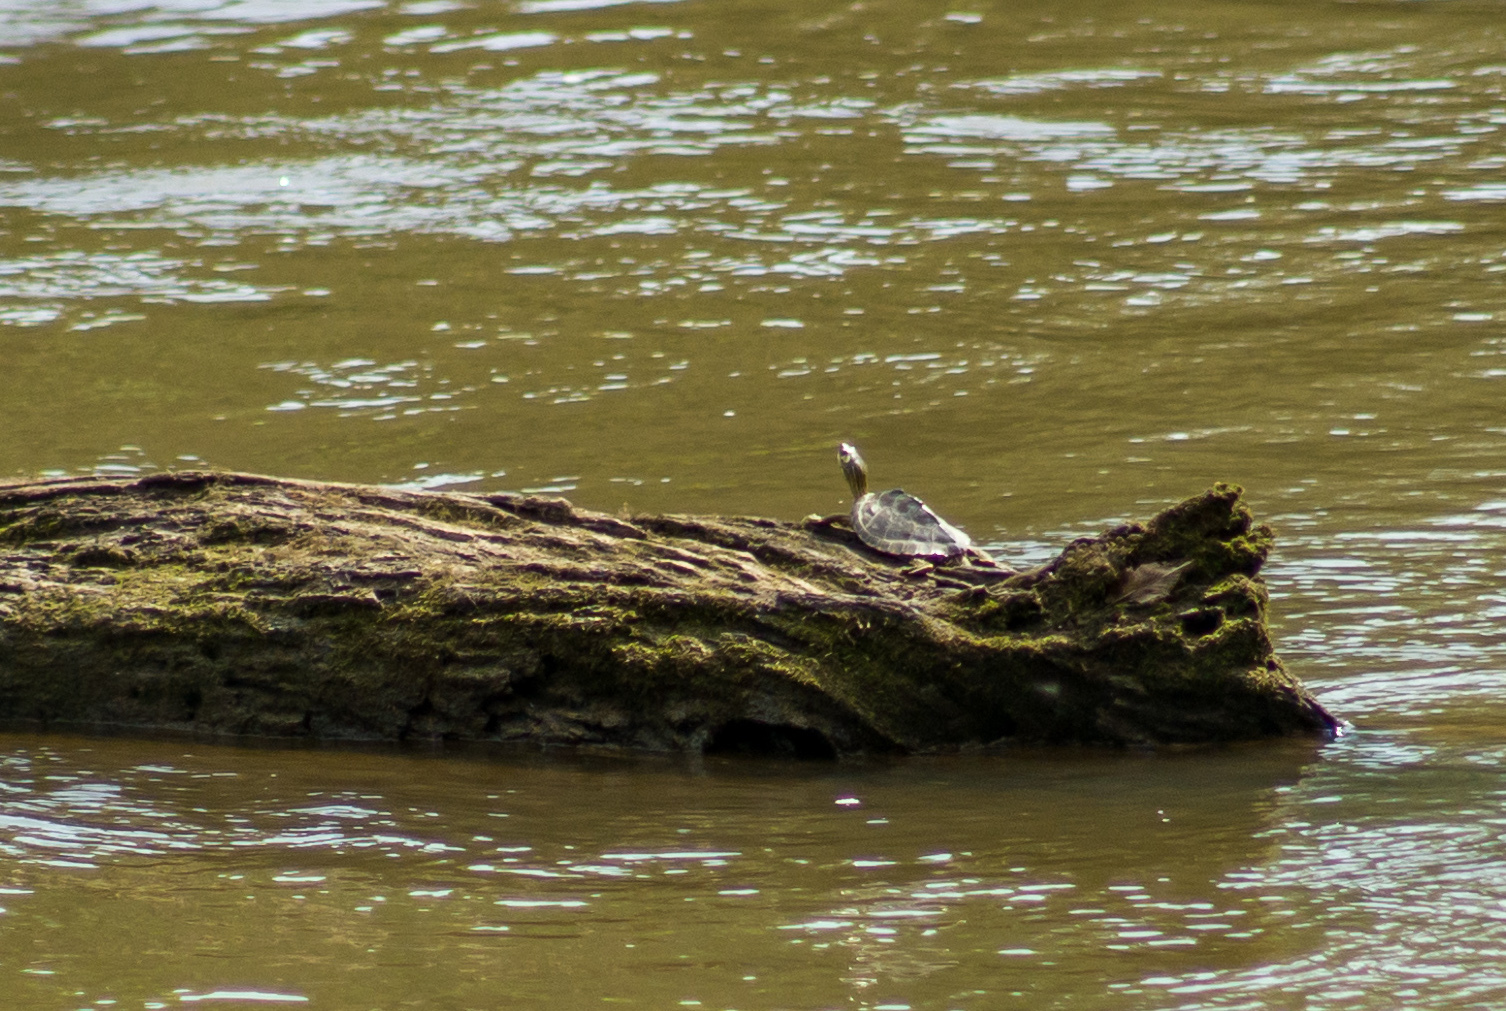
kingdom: Animalia
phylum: Chordata
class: Testudines
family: Emydidae
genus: Graptemys
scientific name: Graptemys pearlensis
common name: Pearl river map turtle
